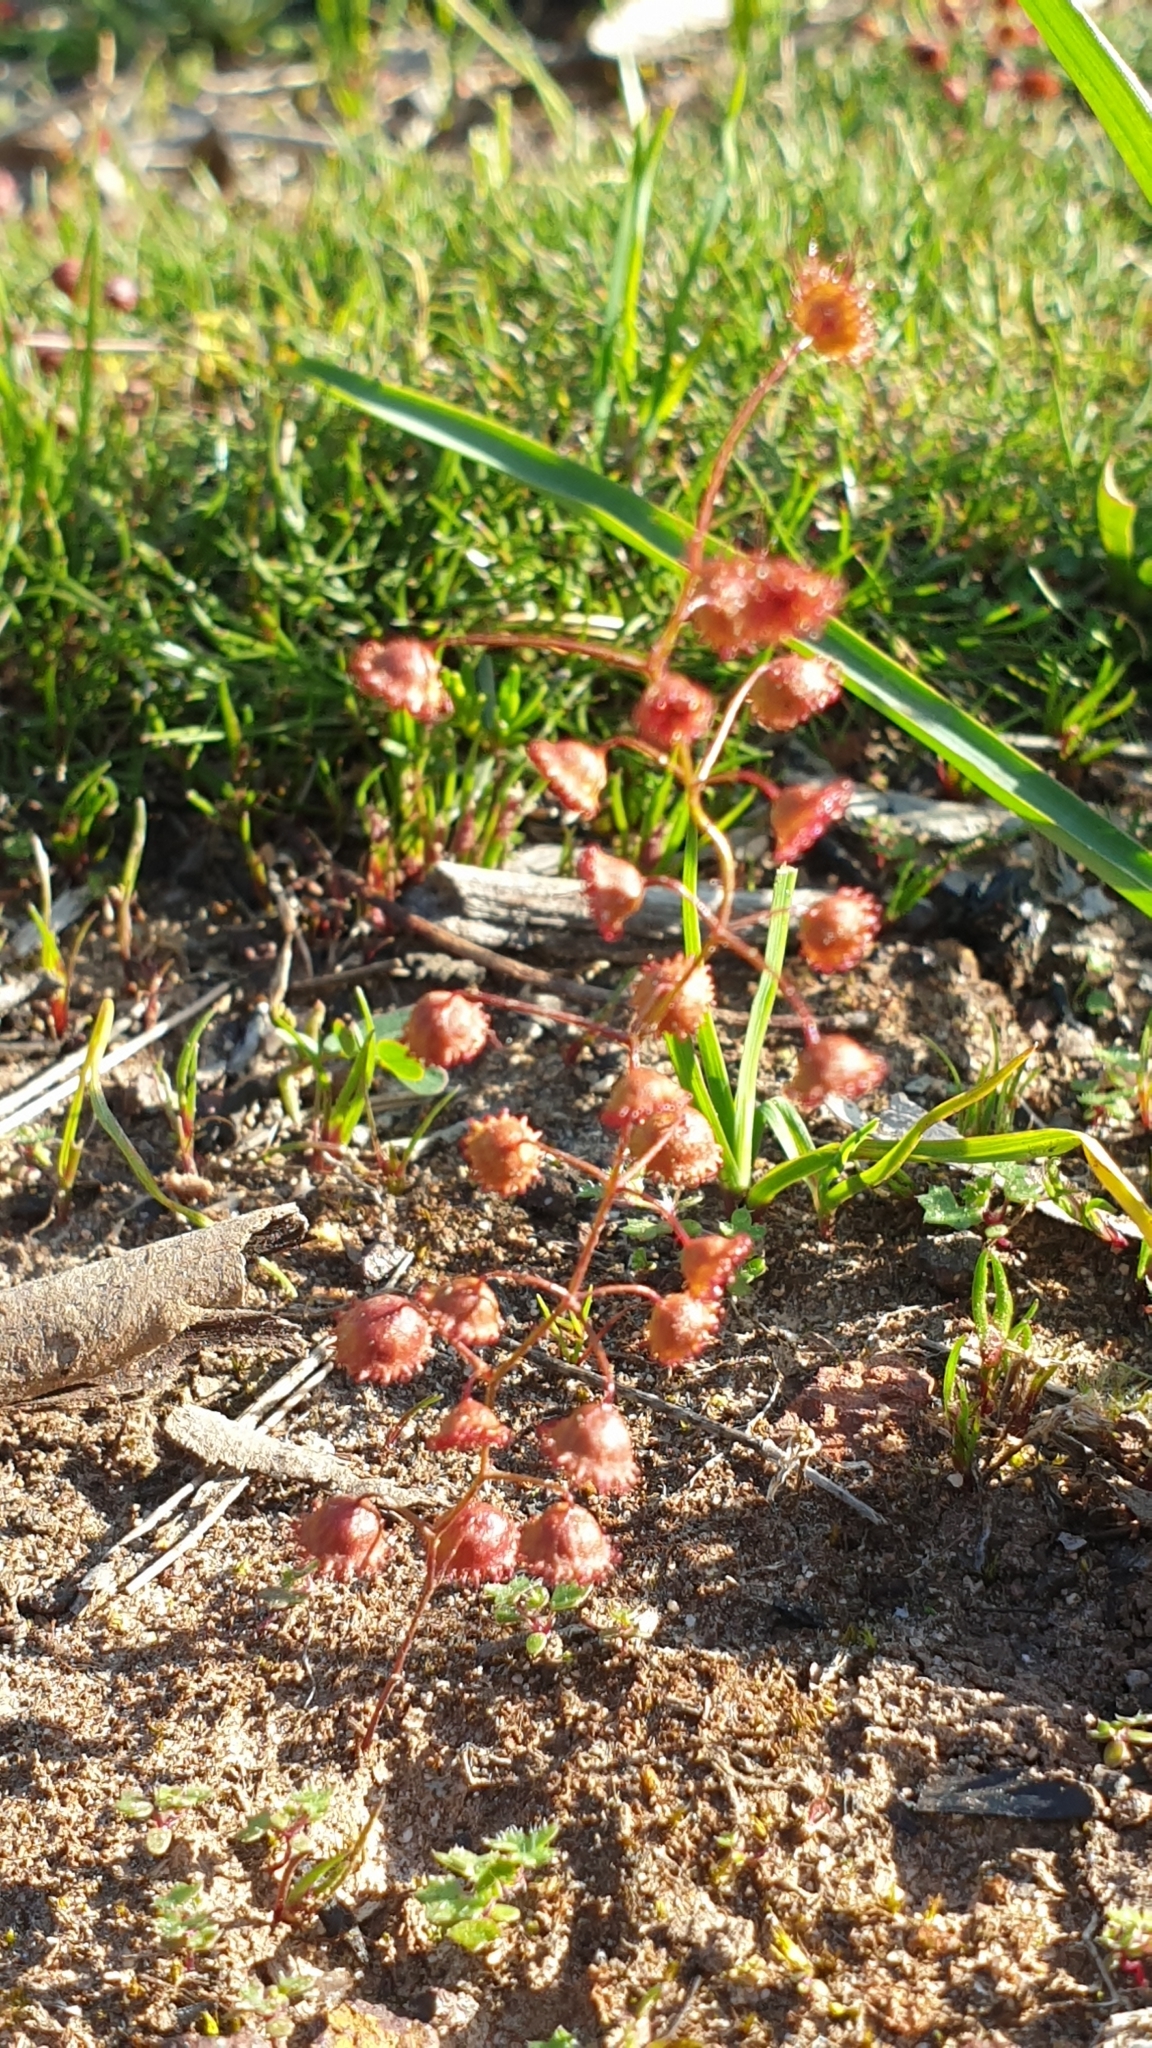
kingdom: Plantae
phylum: Tracheophyta
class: Magnoliopsida
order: Caryophyllales
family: Droseraceae
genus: Drosera
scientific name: Drosera planchonii
